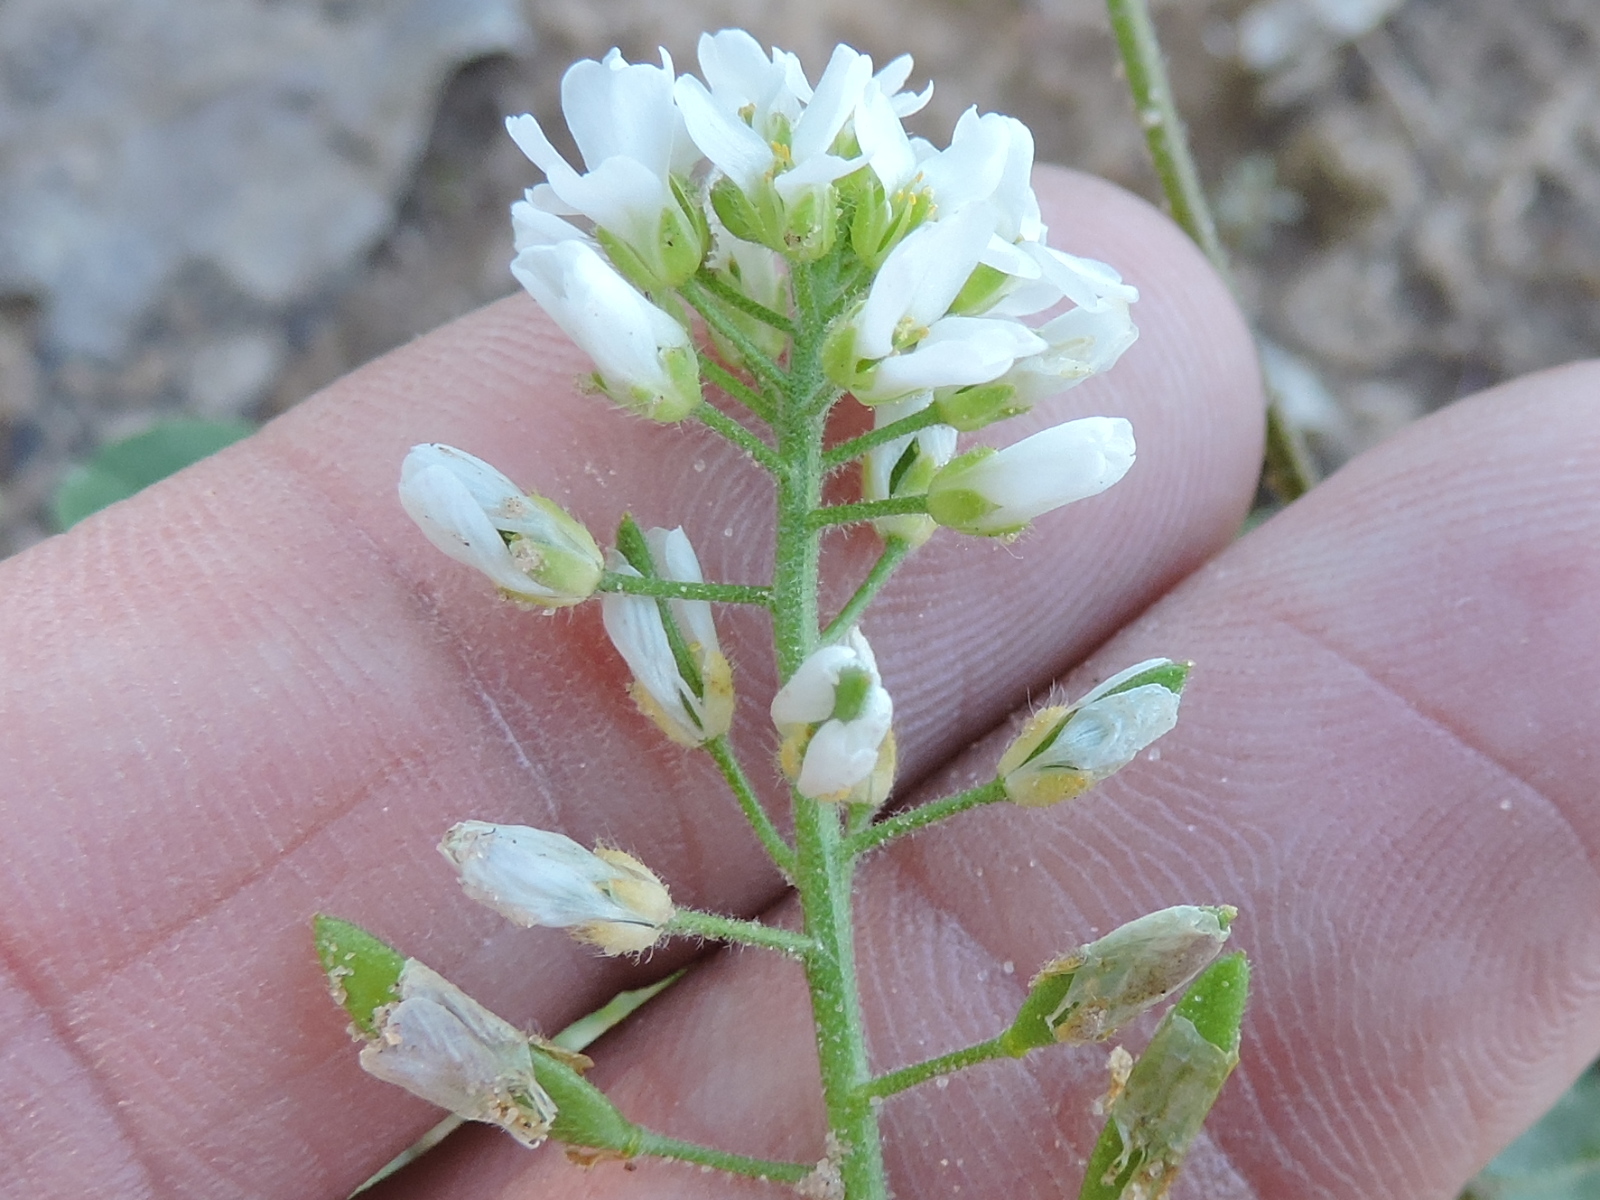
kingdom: Plantae
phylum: Tracheophyta
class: Magnoliopsida
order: Brassicales
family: Brassicaceae
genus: Tomostima
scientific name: Tomostima cuneifolia
